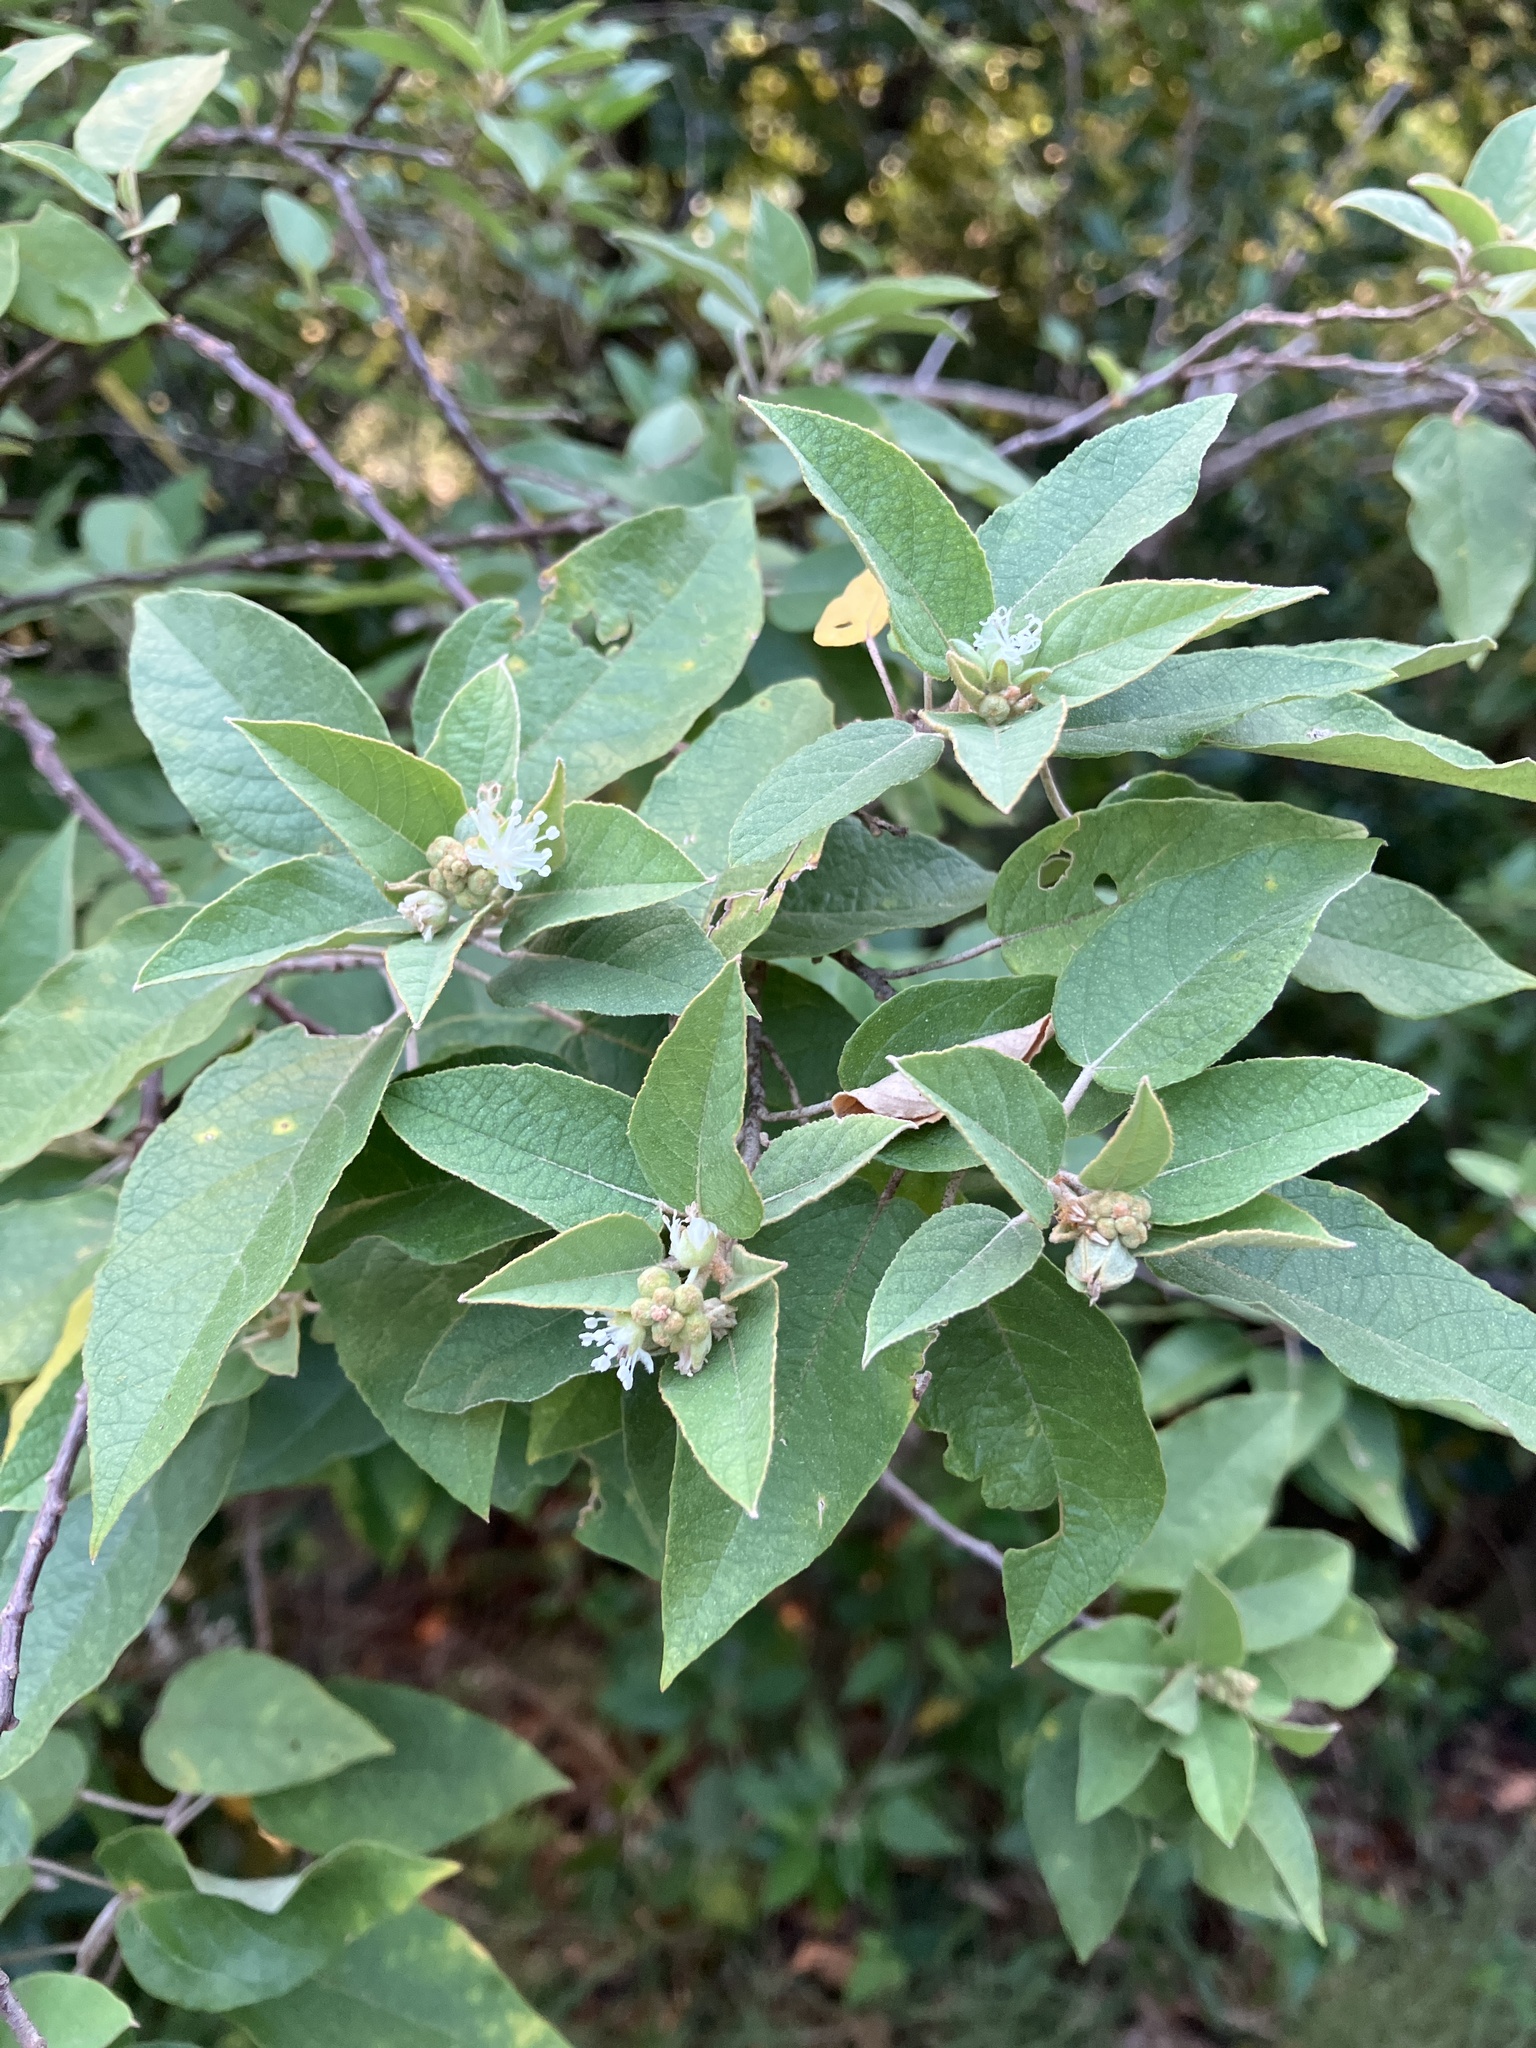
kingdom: Plantae
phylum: Tracheophyta
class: Magnoliopsida
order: Malpighiales
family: Euphorbiaceae
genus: Croton
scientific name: Croton astroites
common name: Wild marrow
